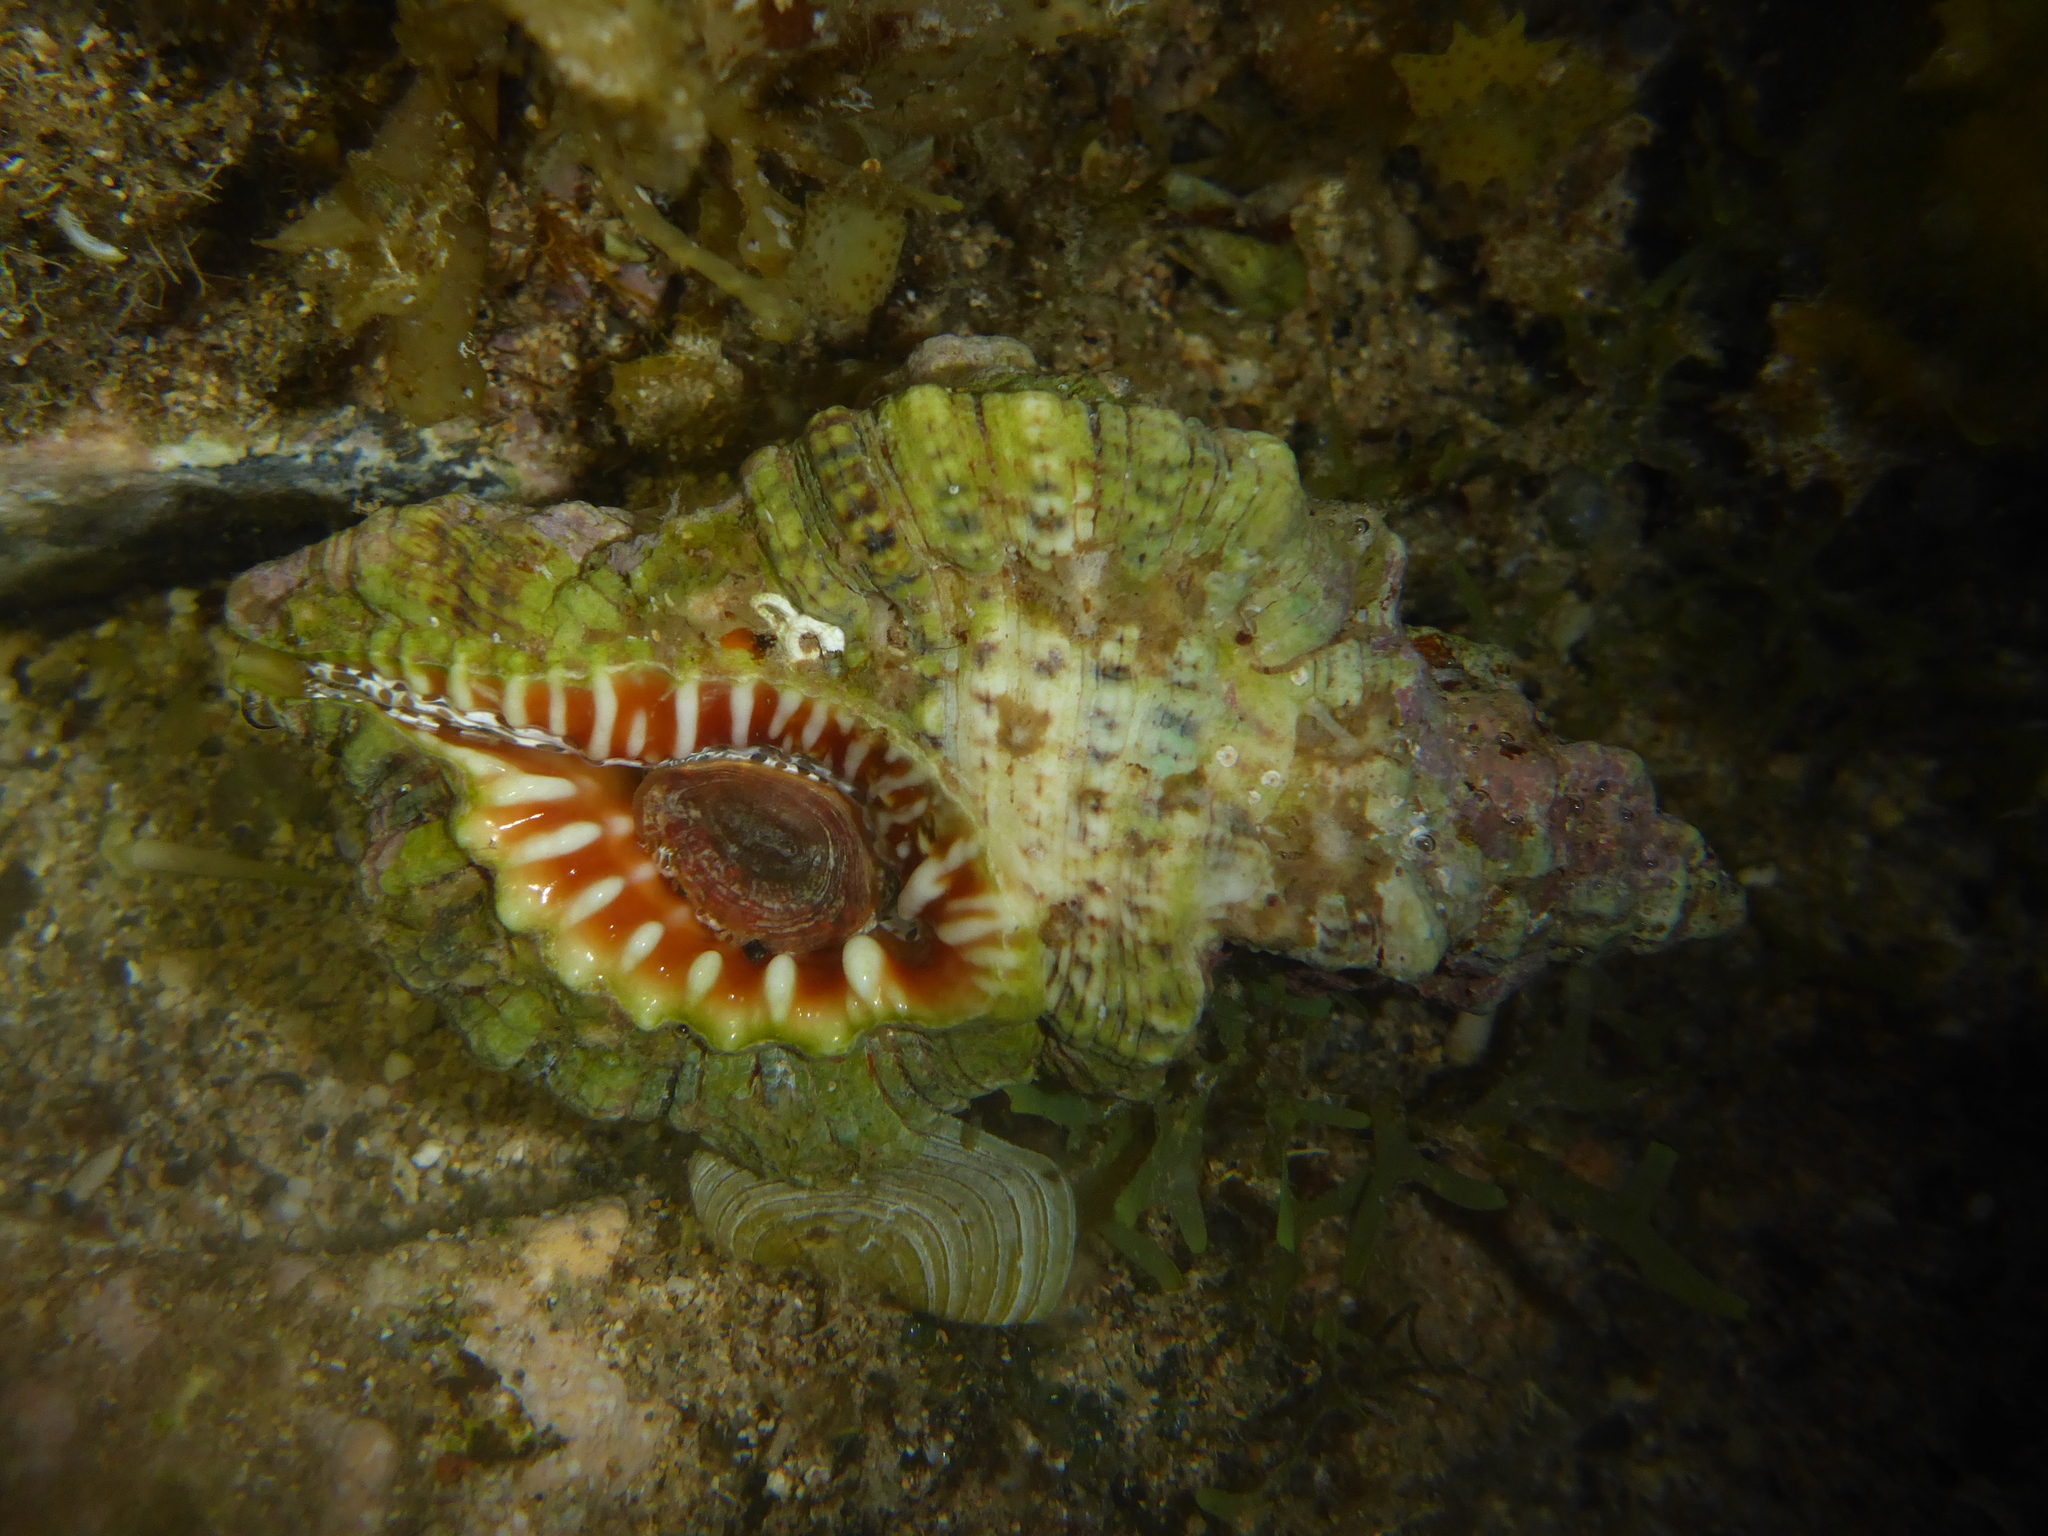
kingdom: Animalia
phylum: Mollusca
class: Gastropoda
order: Littorinimorpha
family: Cymatiidae
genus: Monoplex
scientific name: Monoplex nicobaricus
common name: Goldmouth triton
